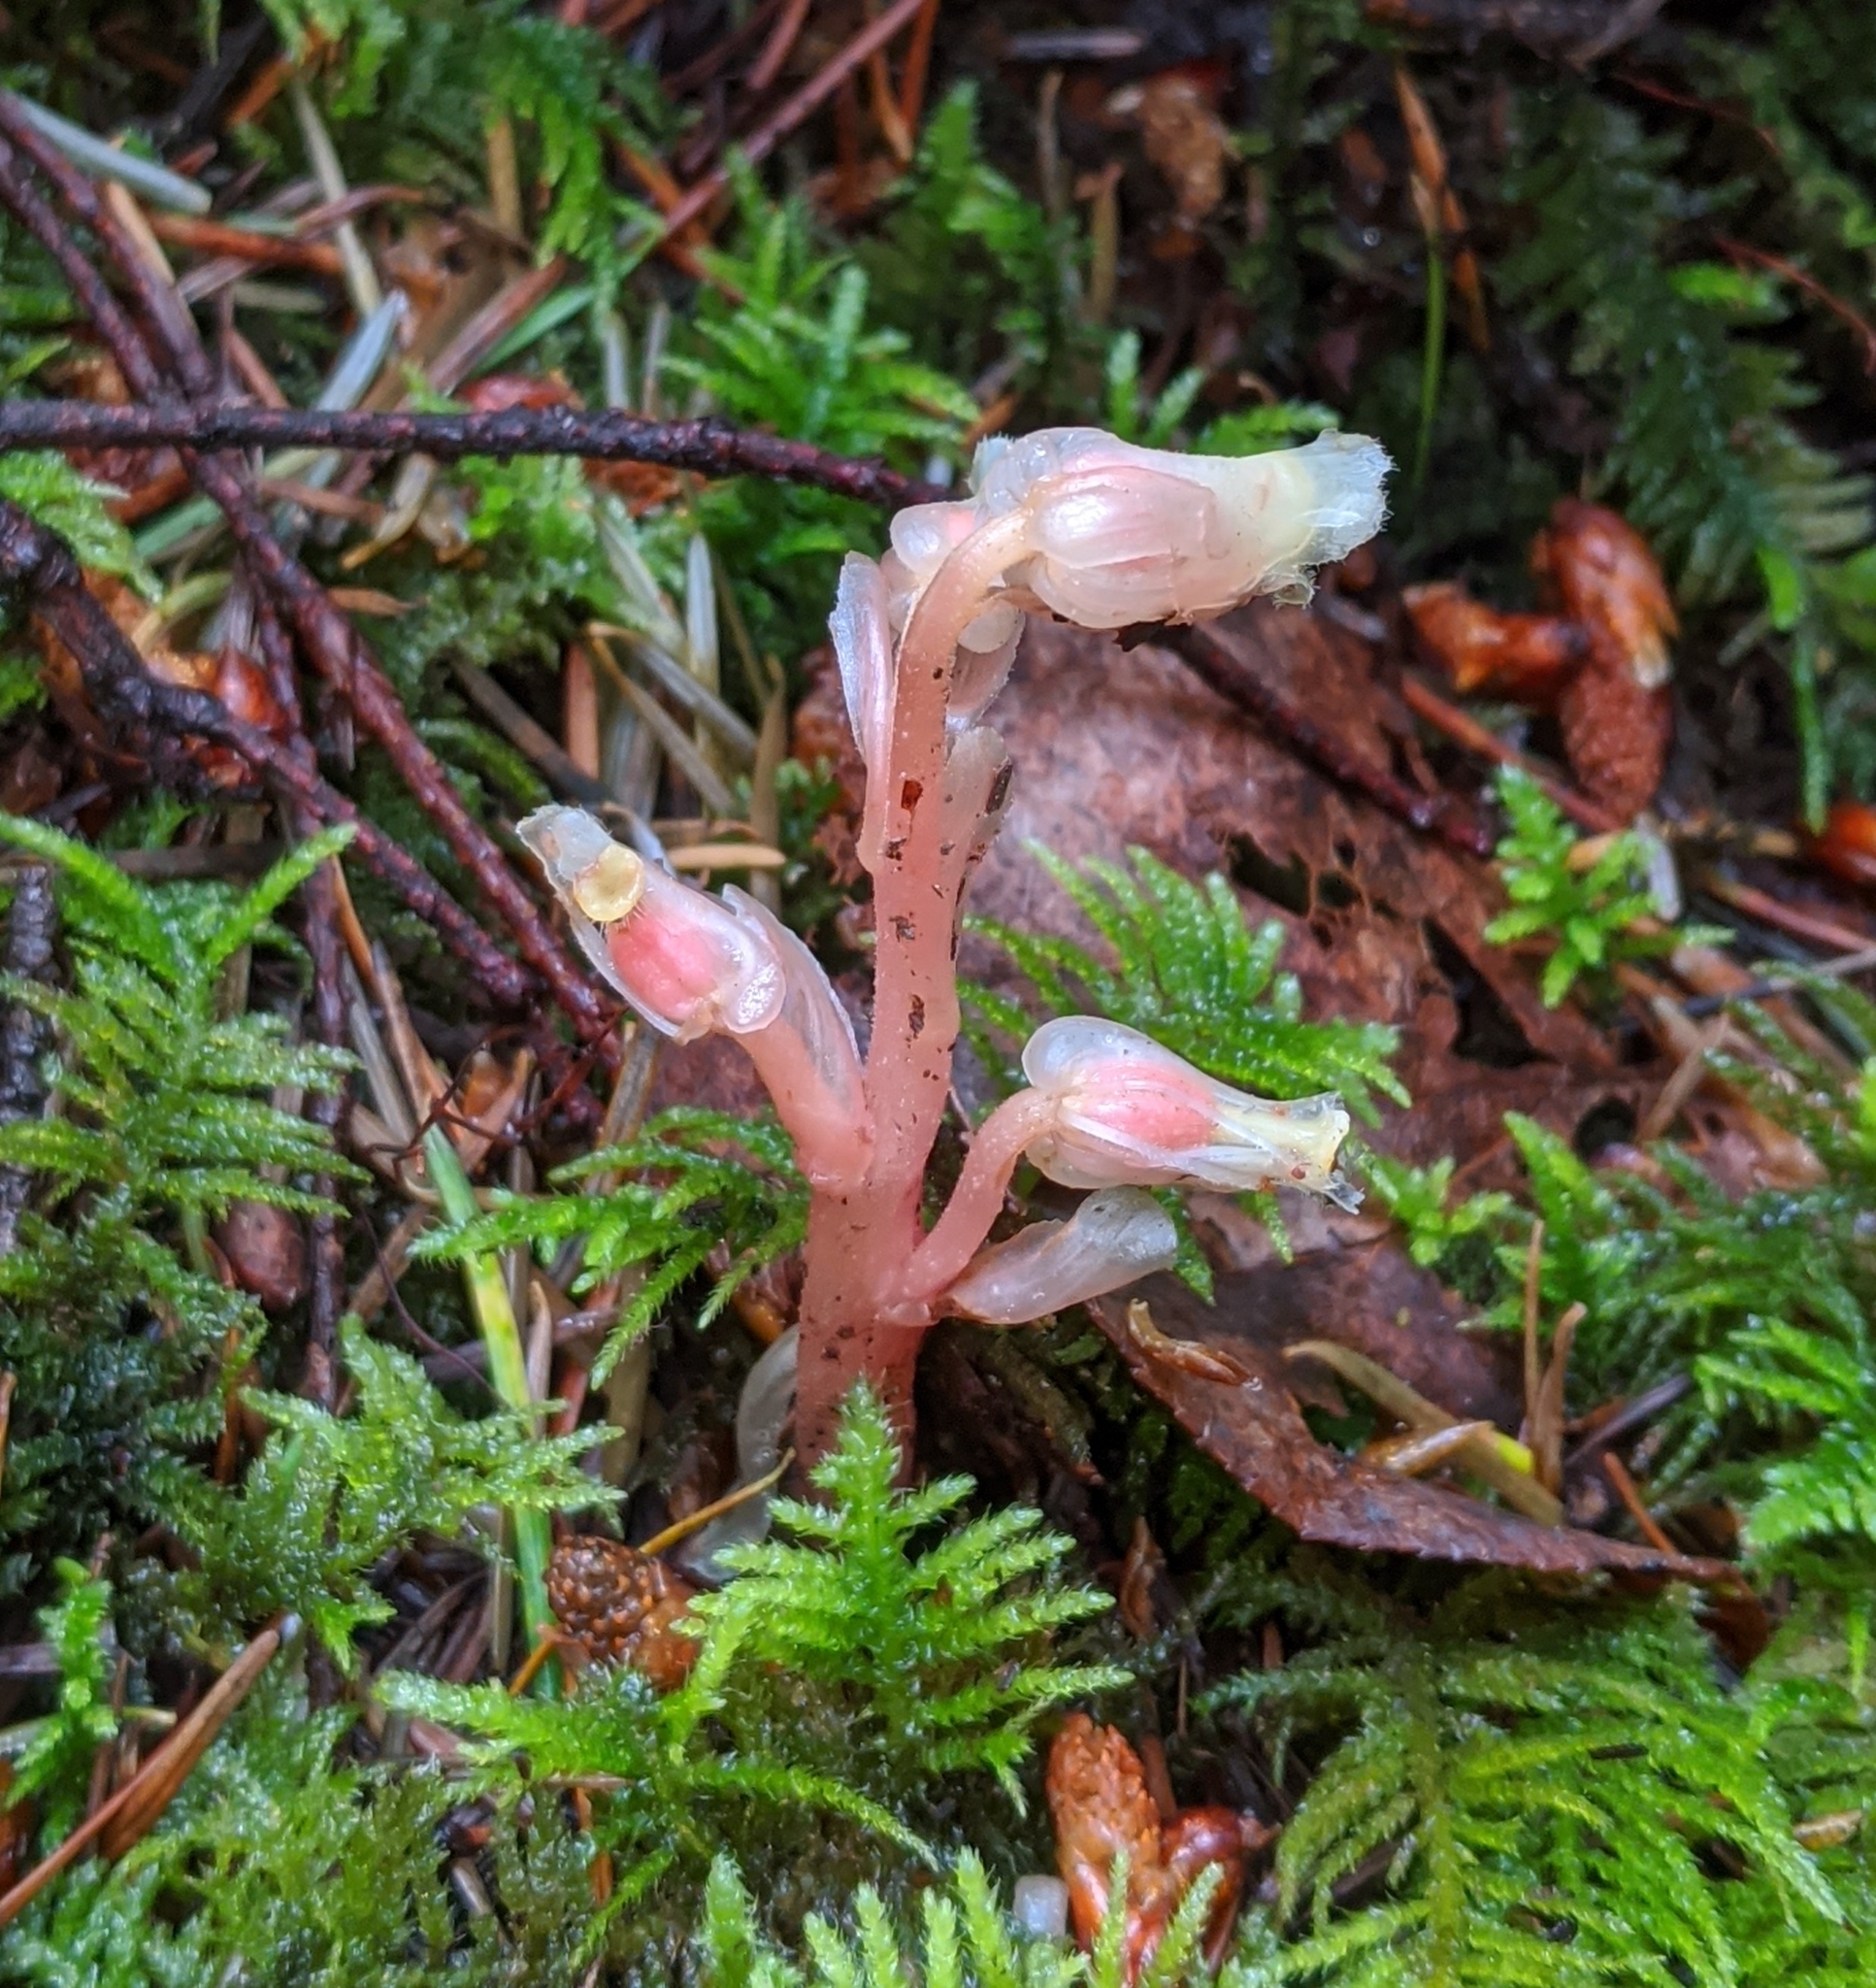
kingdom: Plantae
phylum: Tracheophyta
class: Magnoliopsida
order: Ericales
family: Ericaceae
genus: Hypopitys
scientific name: Hypopitys monotropa
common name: Yellow bird's-nest
